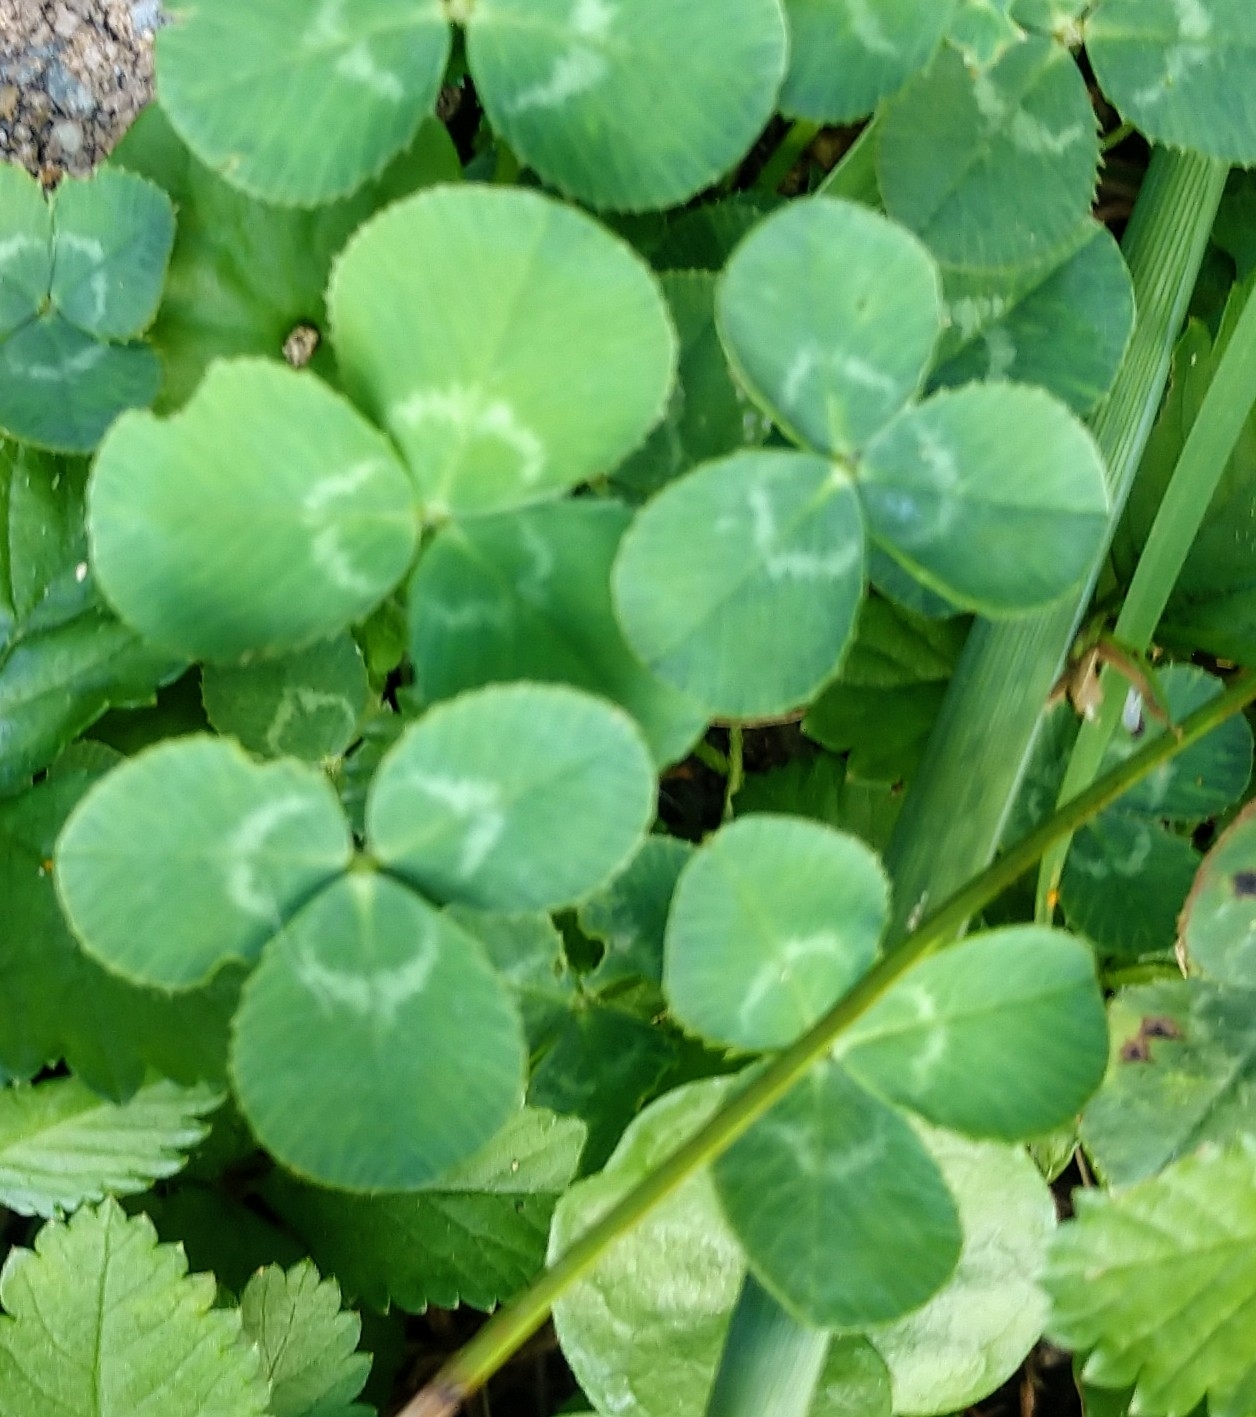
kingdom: Plantae
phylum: Tracheophyta
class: Magnoliopsida
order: Fabales
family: Fabaceae
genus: Trifolium
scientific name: Trifolium repens
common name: White clover
